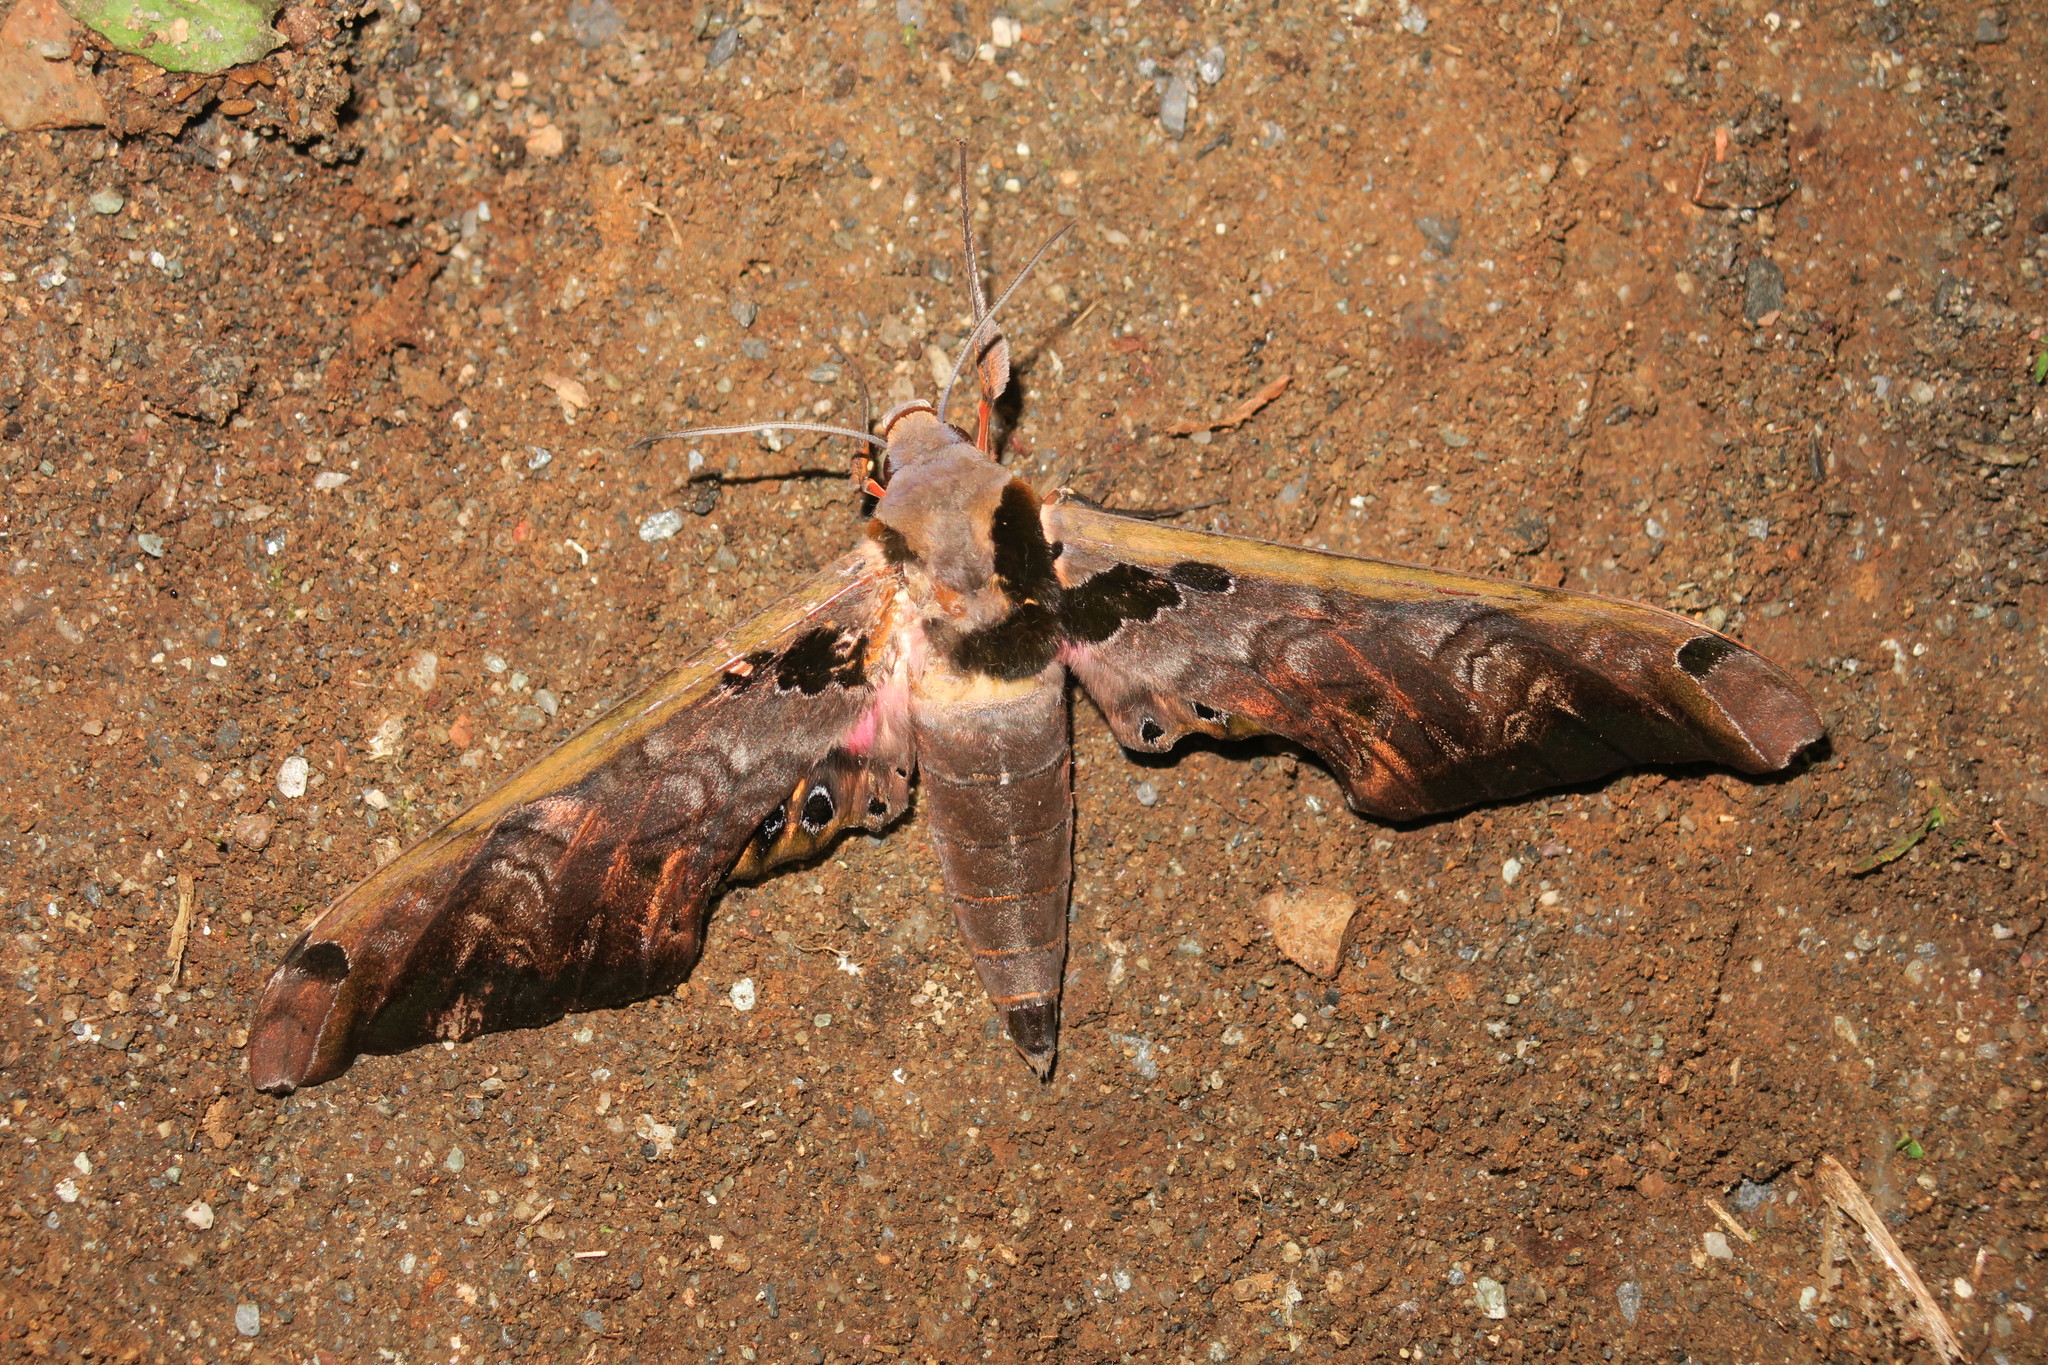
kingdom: Animalia
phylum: Arthropoda
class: Insecta
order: Lepidoptera
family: Sphingidae
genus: Adhemarius
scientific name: Adhemarius sexoculata
